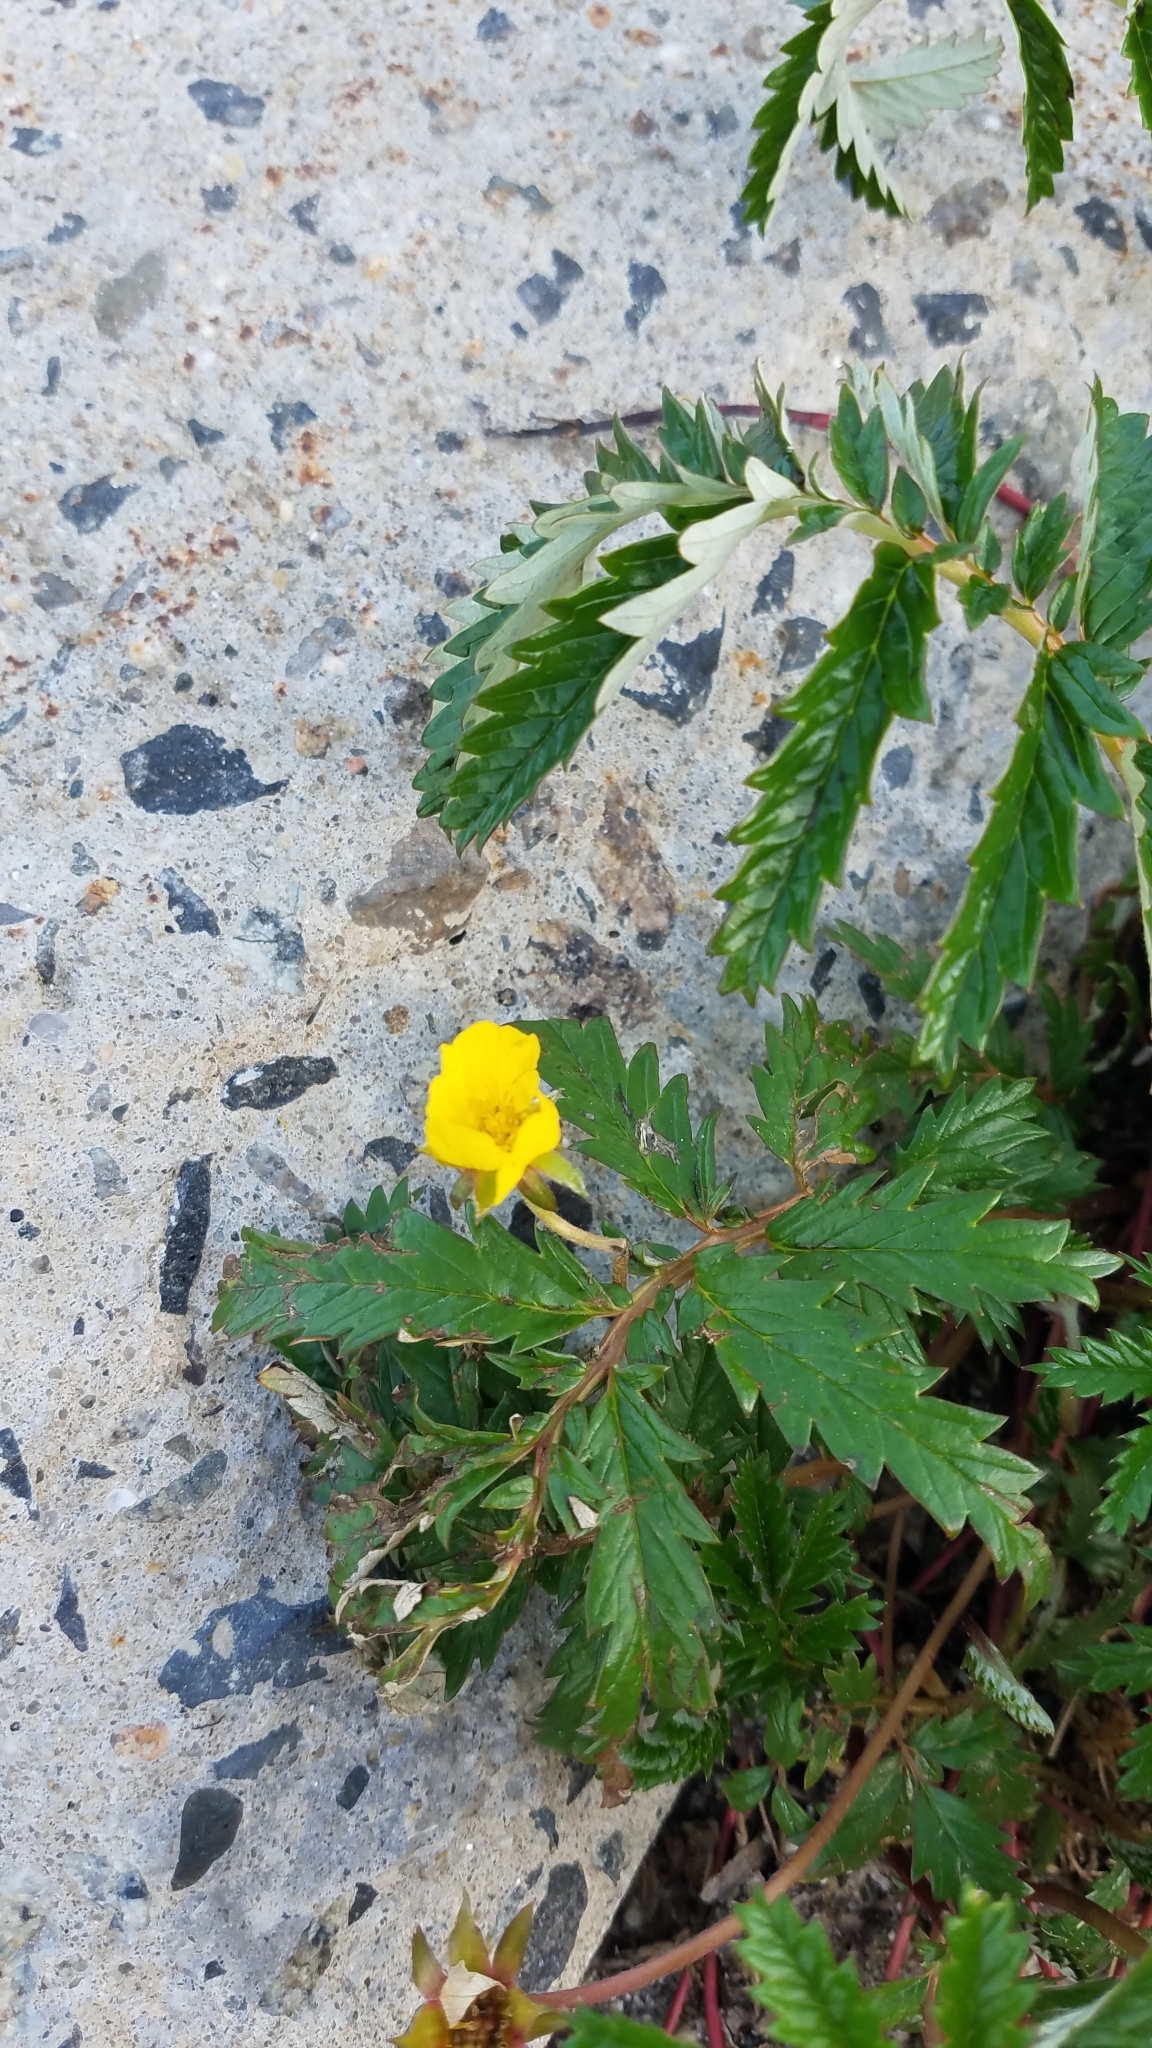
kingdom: Plantae
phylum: Tracheophyta
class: Magnoliopsida
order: Rosales
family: Rosaceae
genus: Argentina
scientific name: Argentina anserina
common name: Common silverweed
